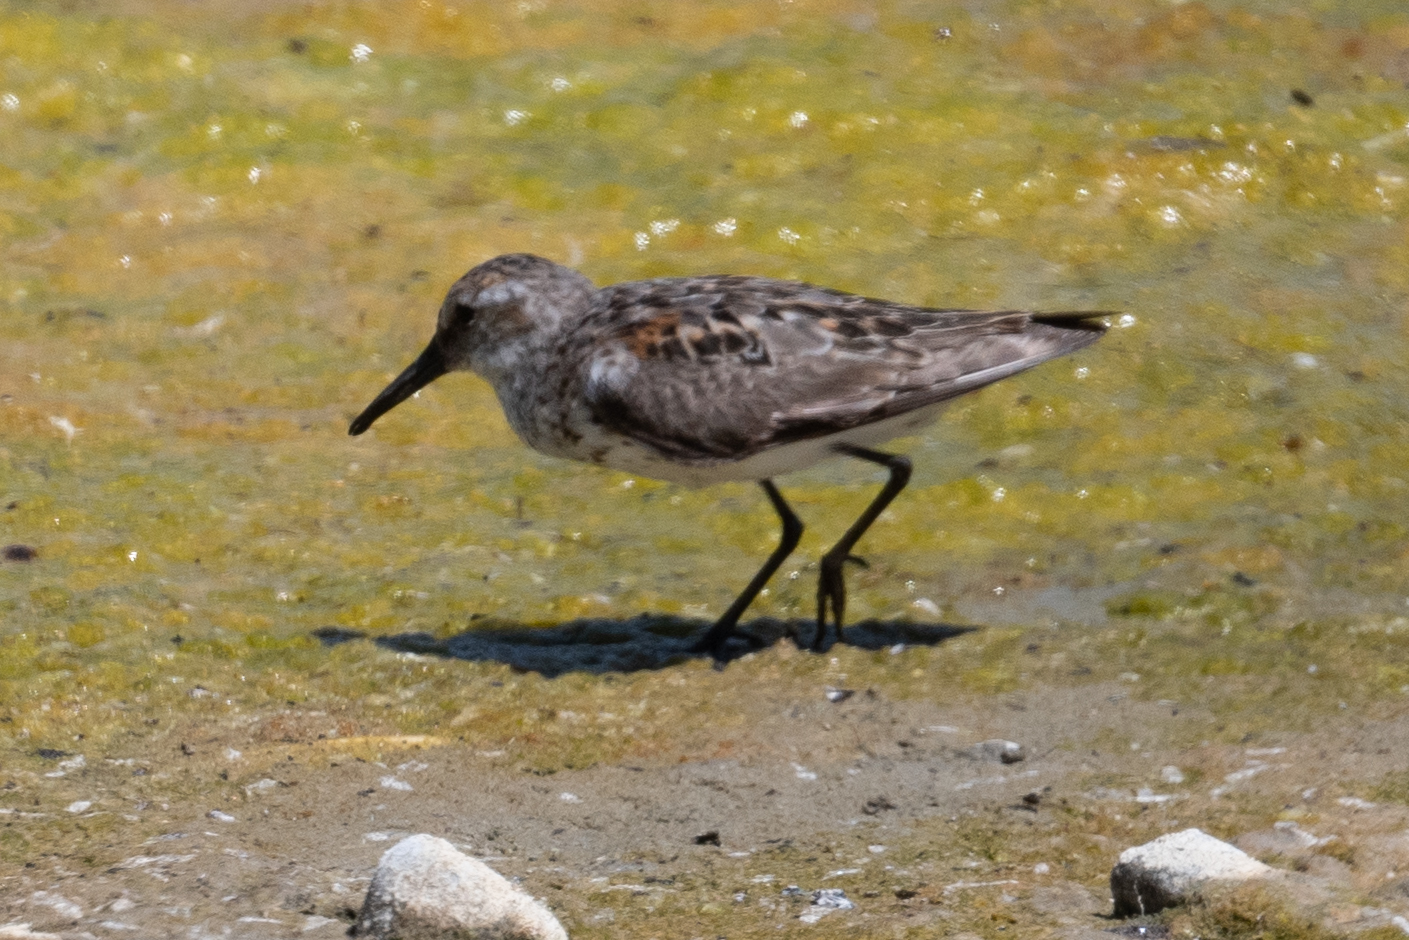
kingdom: Animalia
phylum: Chordata
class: Aves
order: Charadriiformes
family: Scolopacidae
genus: Calidris
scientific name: Calidris mauri
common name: Western sandpiper
